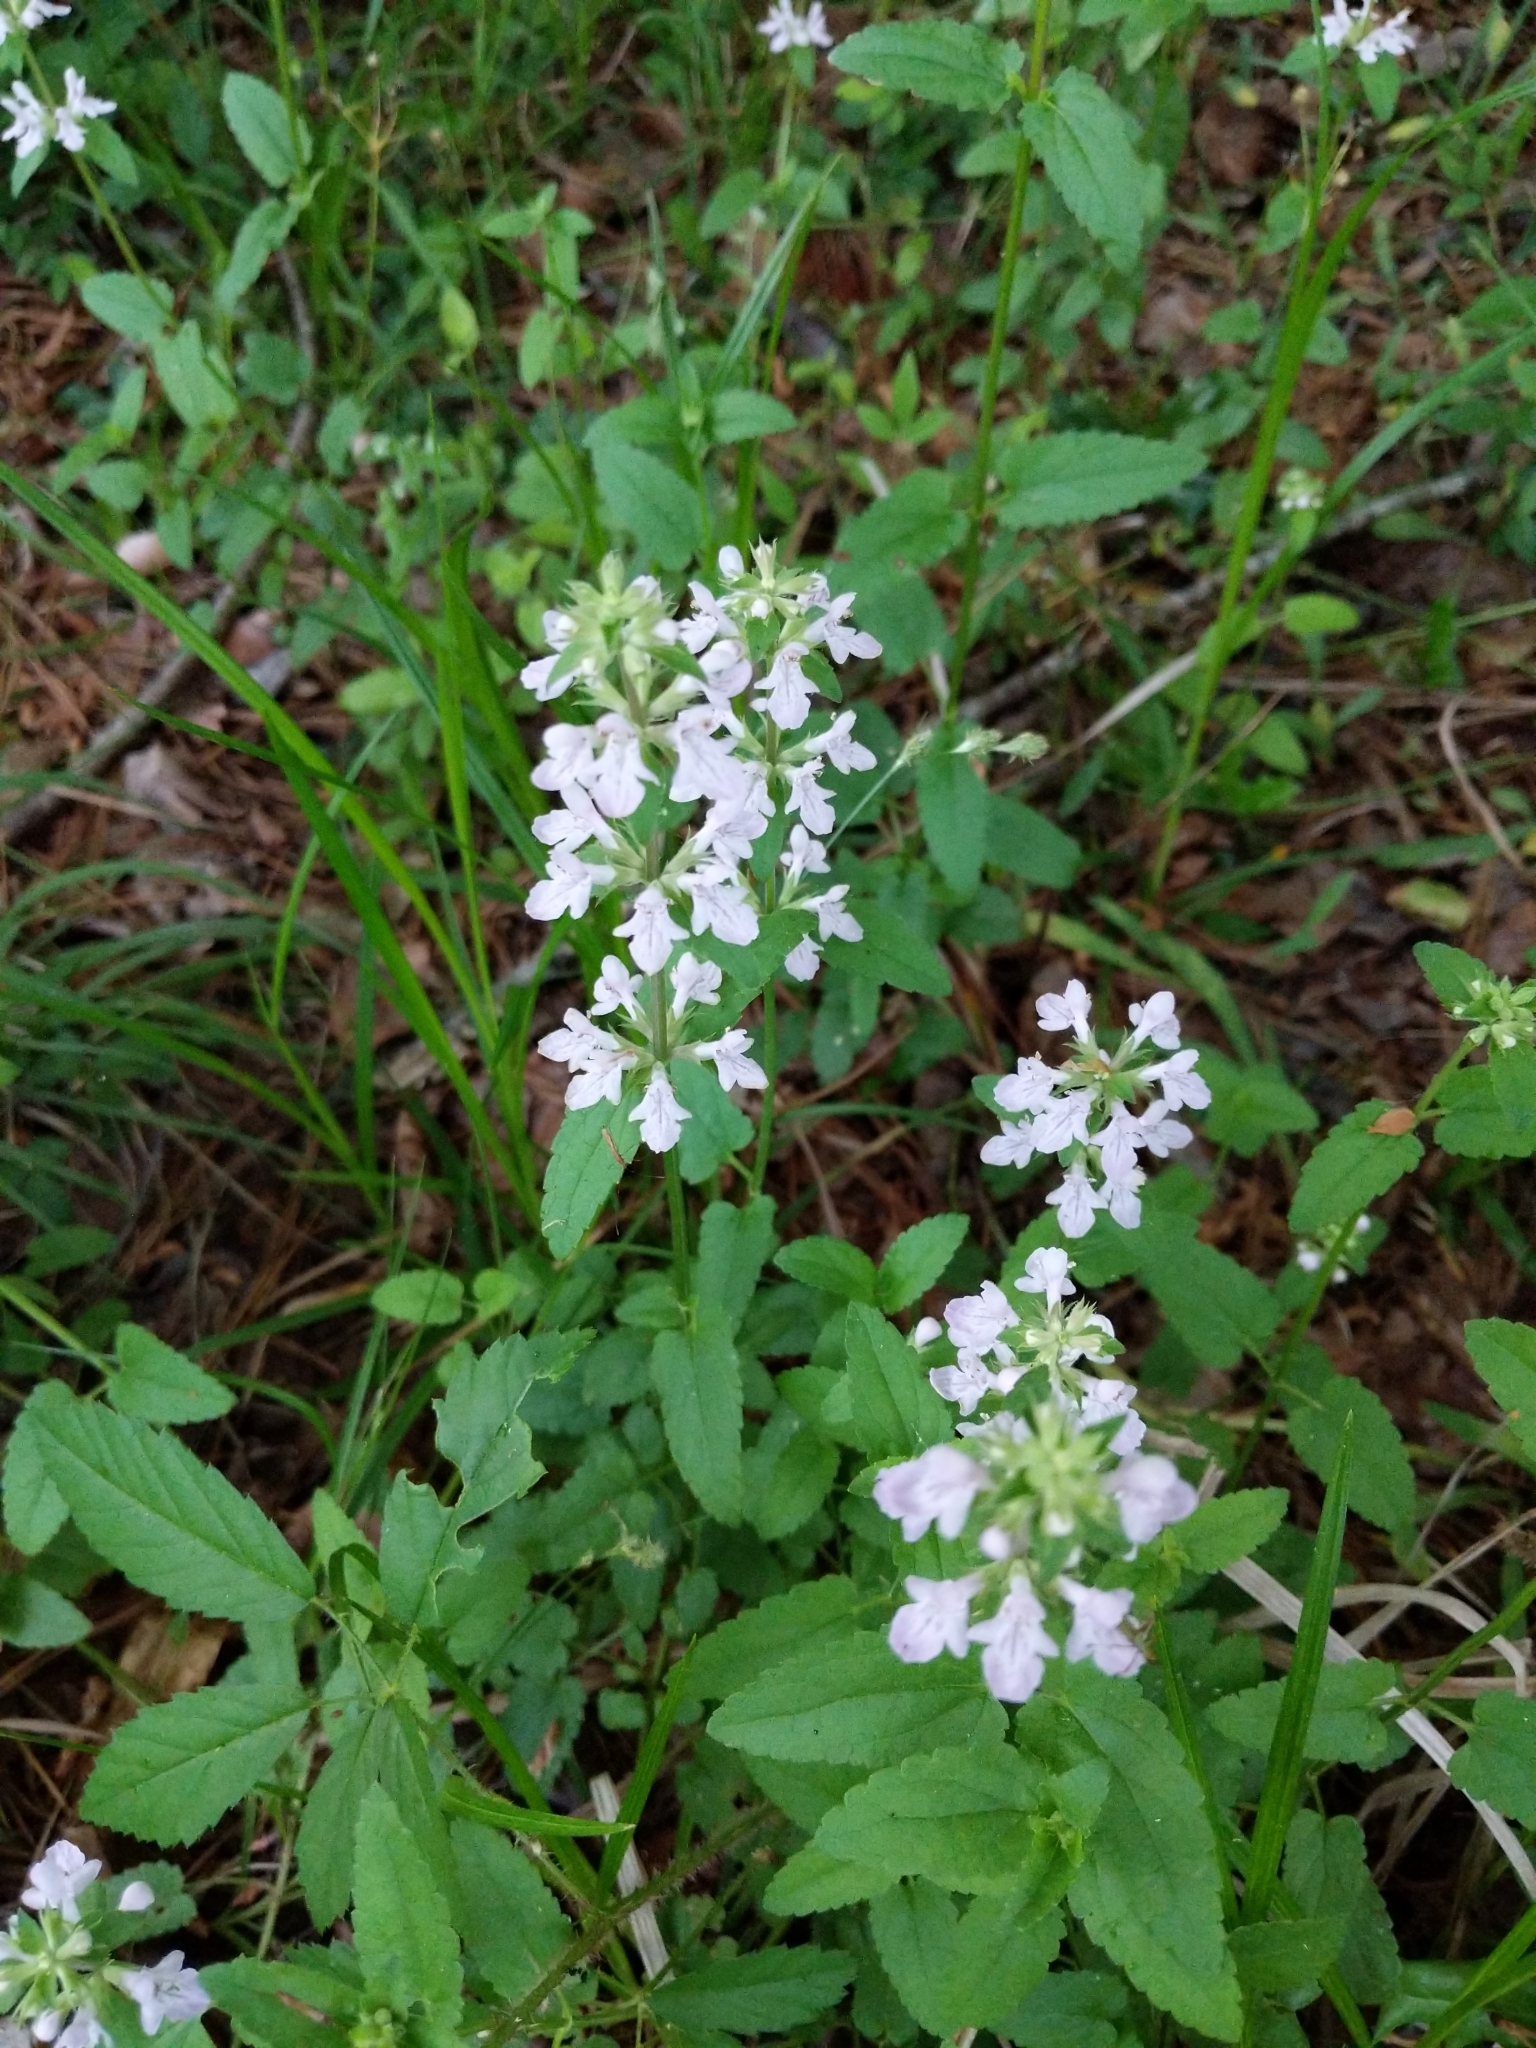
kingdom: Plantae
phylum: Tracheophyta
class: Magnoliopsida
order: Lamiales
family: Lamiaceae
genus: Stachys
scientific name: Stachys floridana
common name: Florida betony
